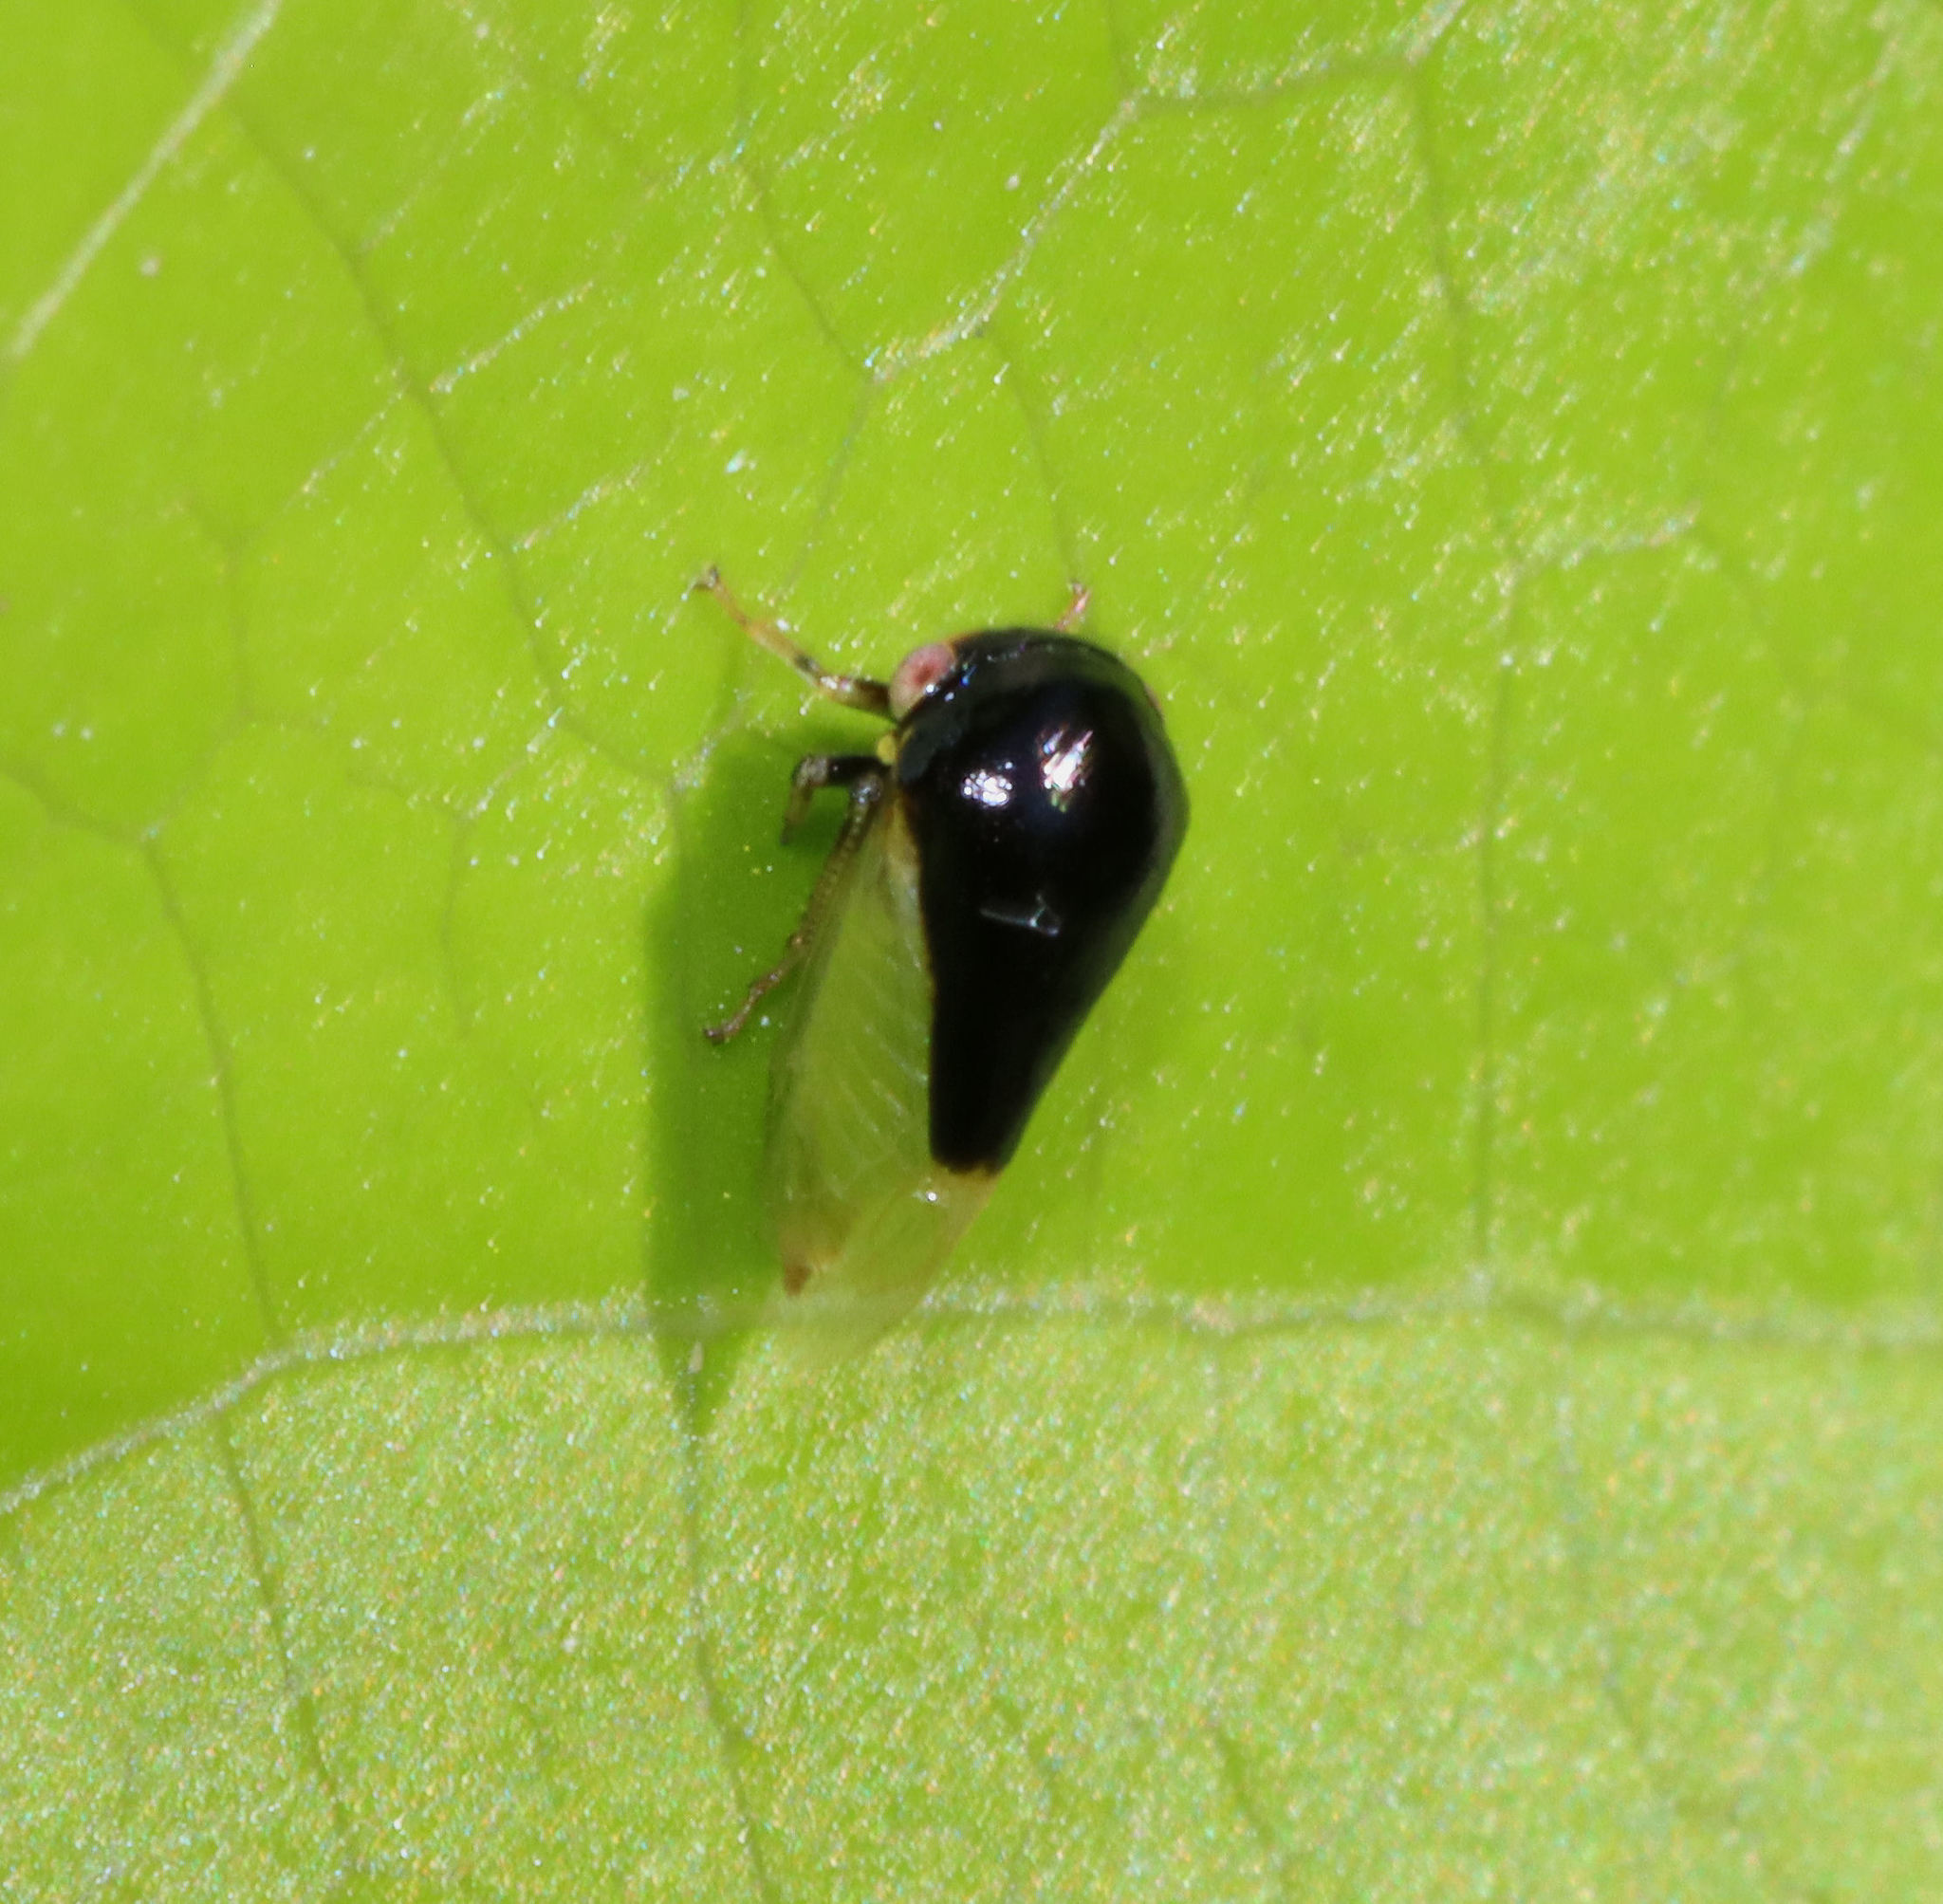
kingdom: Animalia
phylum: Arthropoda
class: Insecta
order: Hemiptera
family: Membracidae
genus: Micrutalis
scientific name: Micrutalis calva
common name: Honeylocust treehopper
